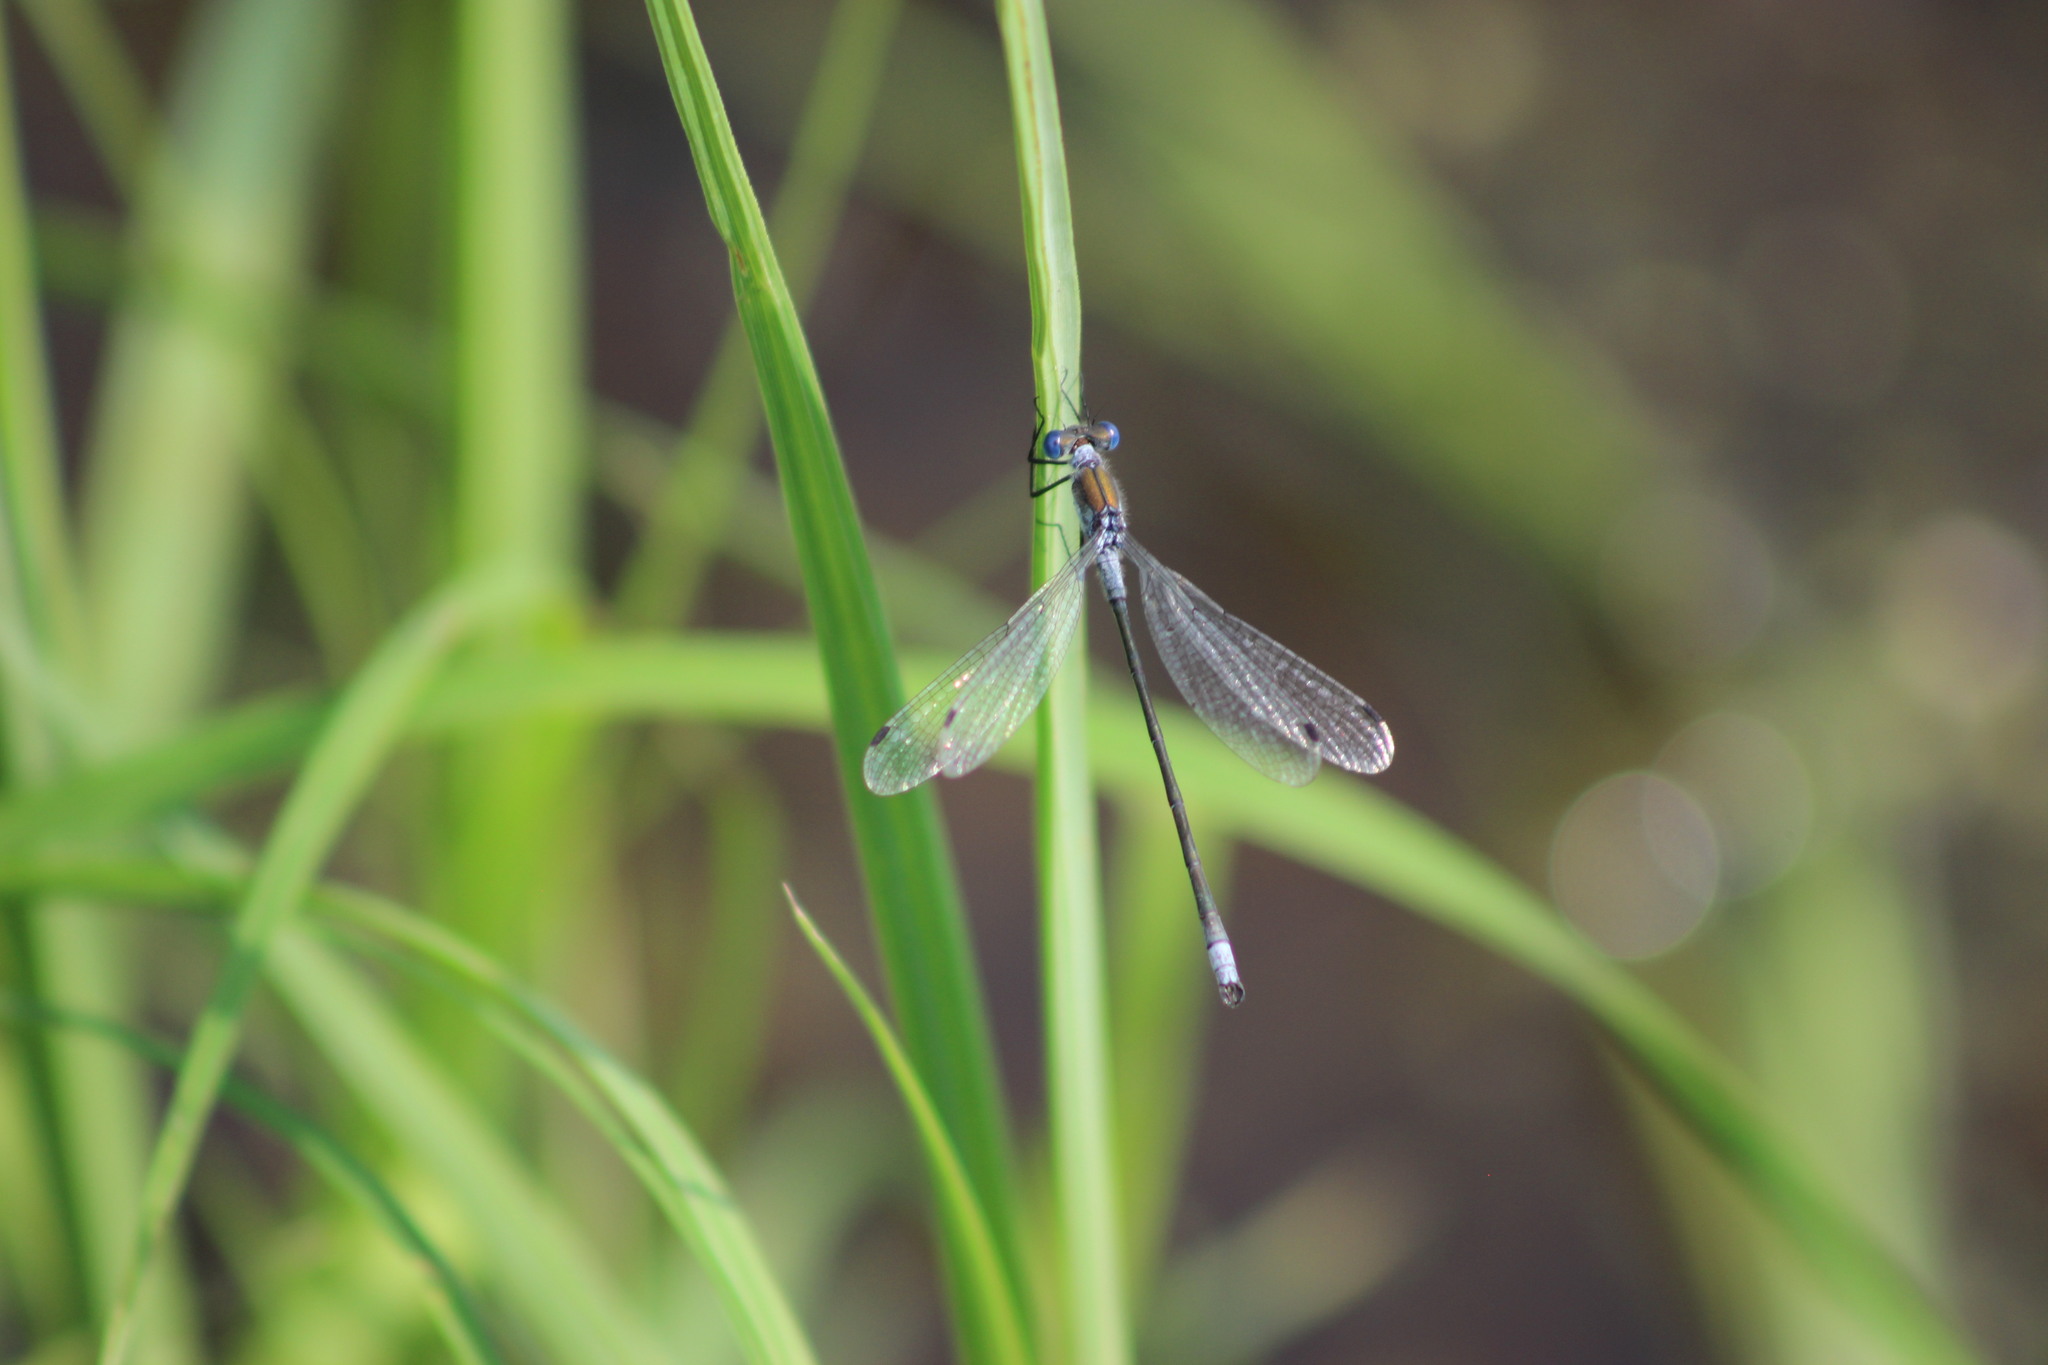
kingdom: Animalia
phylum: Arthropoda
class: Insecta
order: Odonata
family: Lestidae
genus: Lestes
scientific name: Lestes sponsa
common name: Common spreadwing
